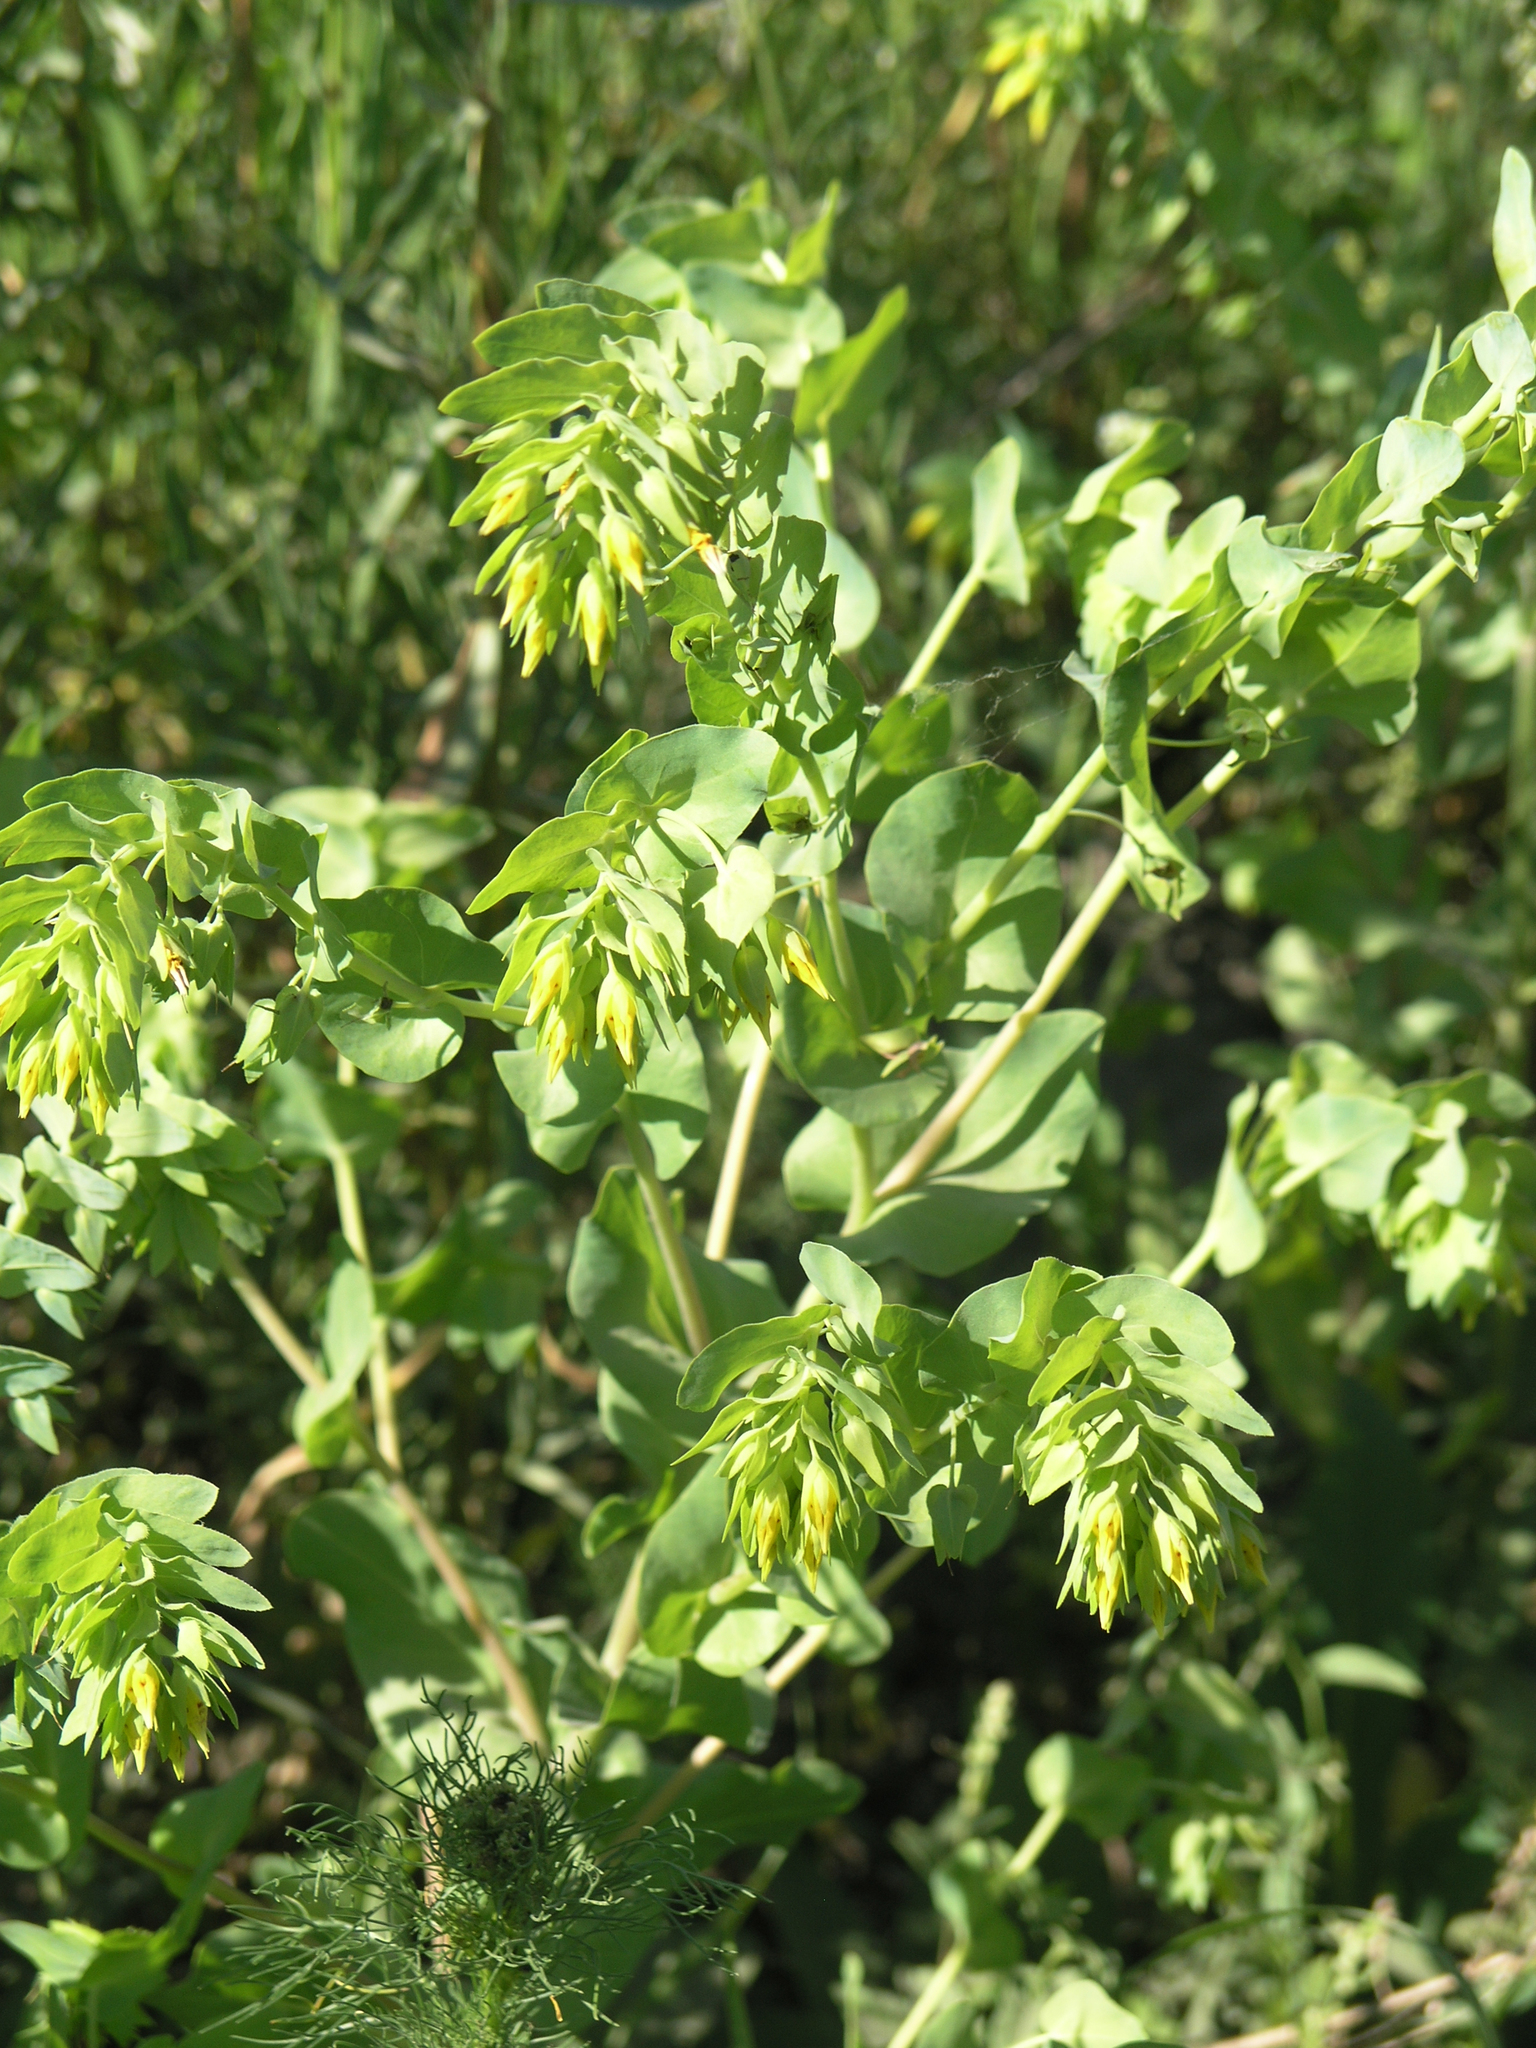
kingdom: Plantae
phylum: Tracheophyta
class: Magnoliopsida
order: Boraginales
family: Boraginaceae
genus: Cerinthe
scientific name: Cerinthe minor
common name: Lesser honeywort
